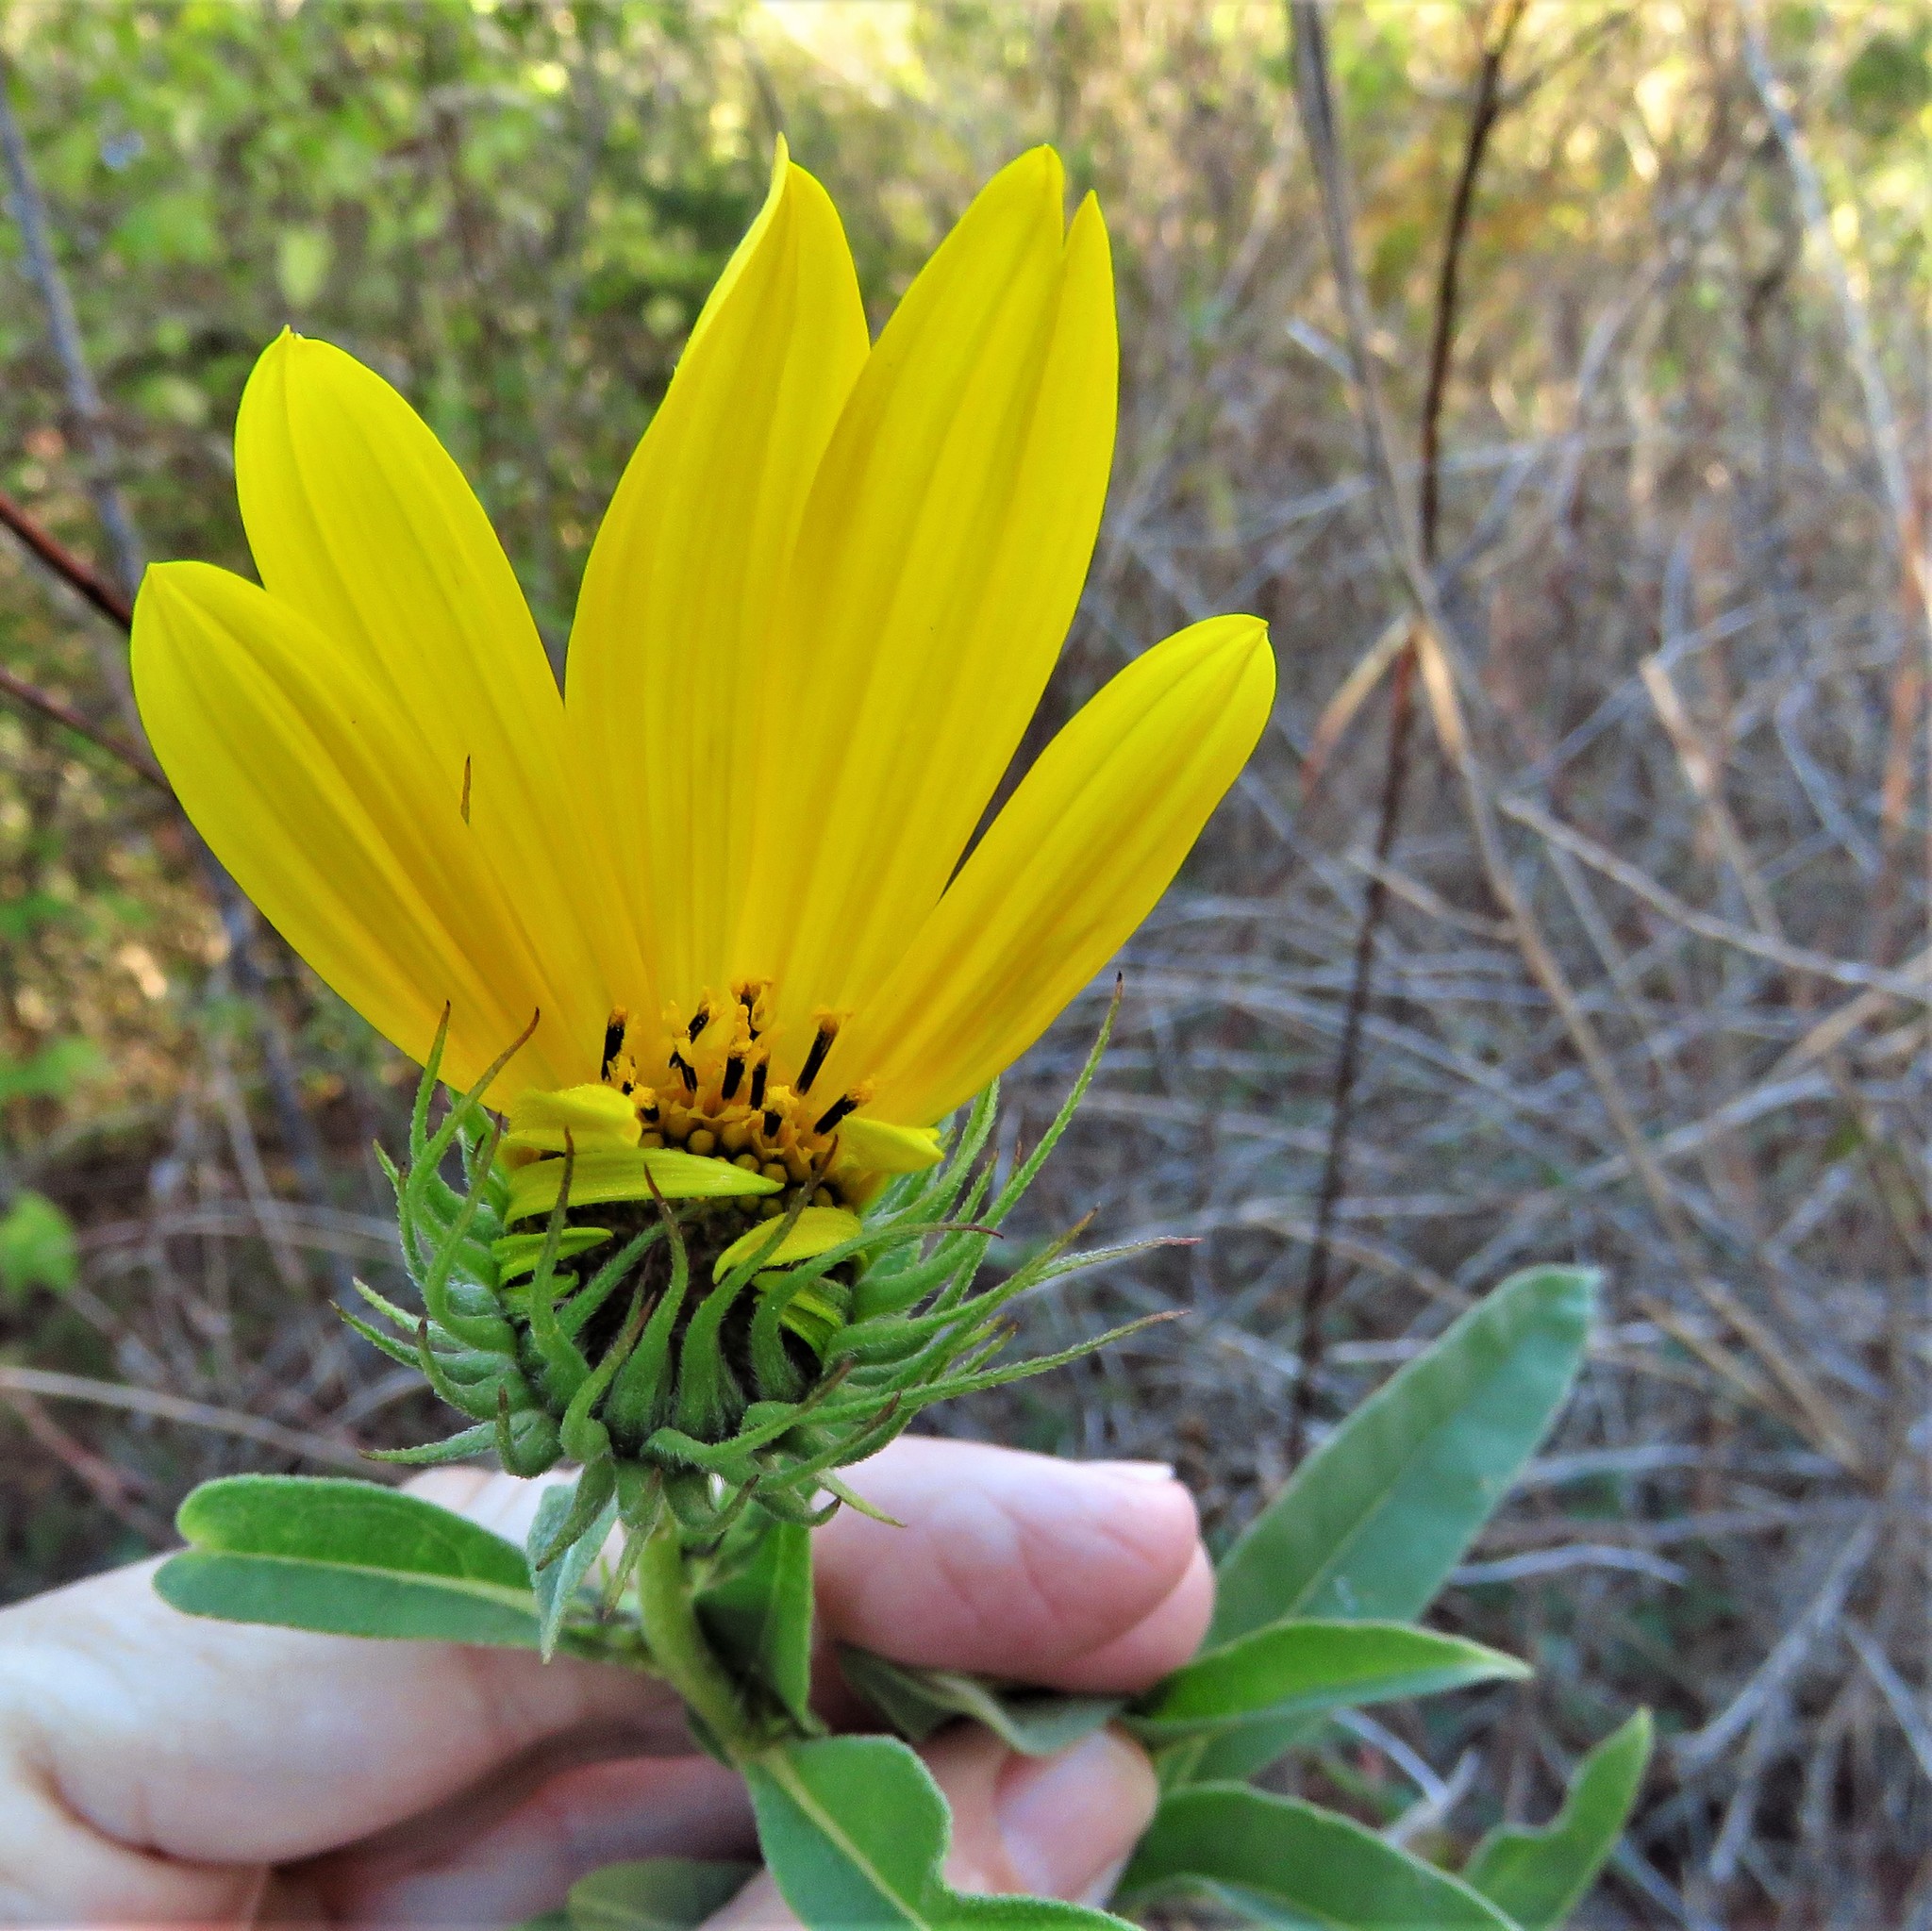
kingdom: Plantae
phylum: Tracheophyta
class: Magnoliopsida
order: Asterales
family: Asteraceae
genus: Helianthus
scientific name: Helianthus maximiliani
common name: Maximilian's sunflower
